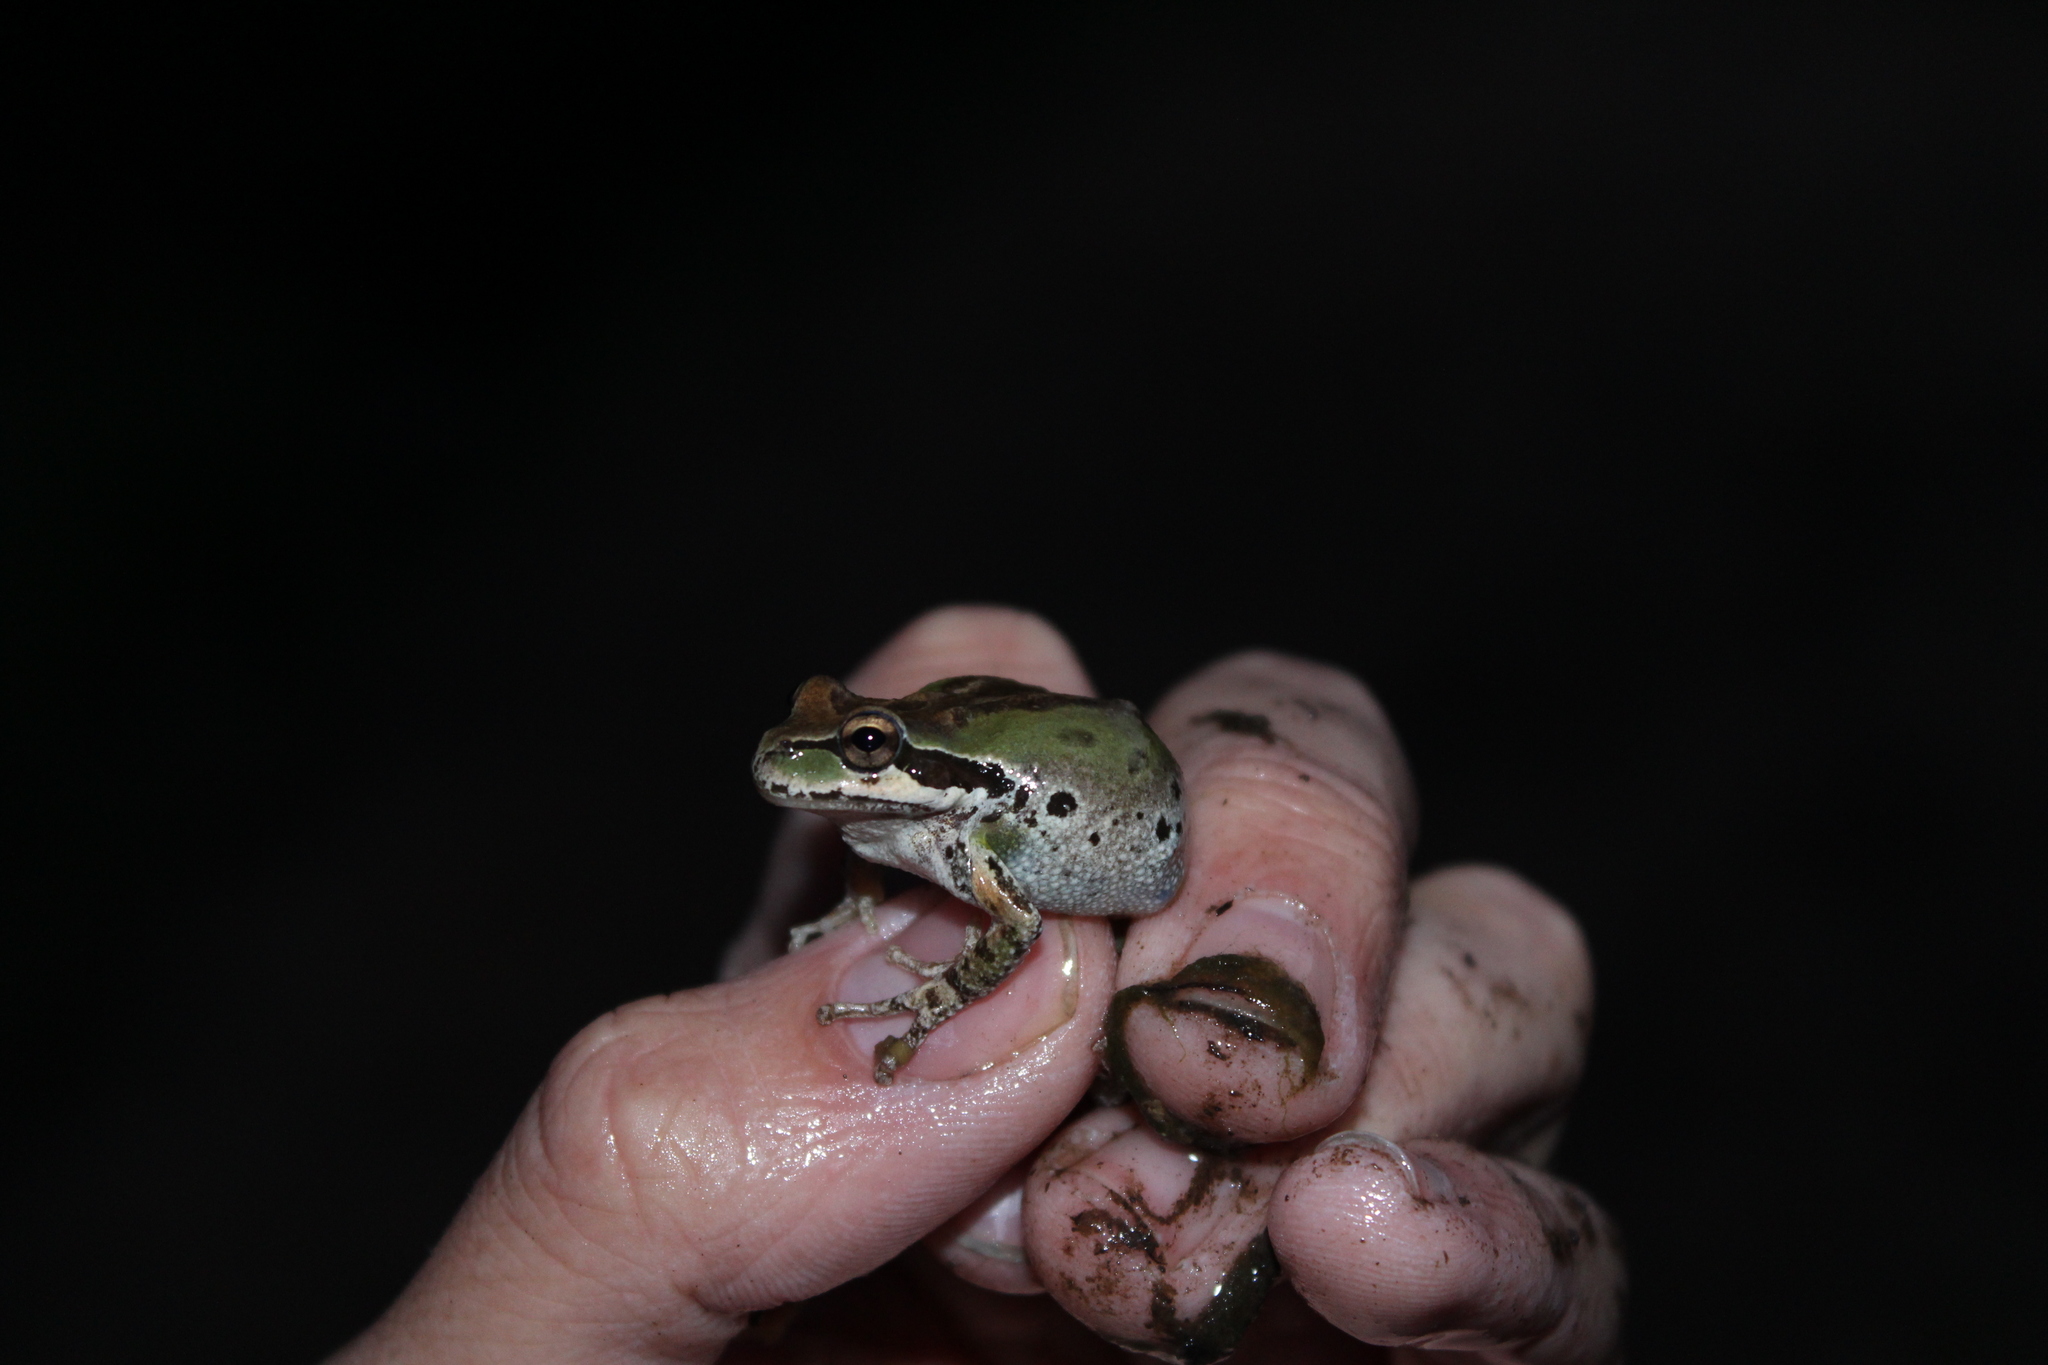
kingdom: Animalia
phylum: Chordata
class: Amphibia
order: Anura
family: Hylidae
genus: Pseudacris
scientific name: Pseudacris regilla
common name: Pacific chorus frog
